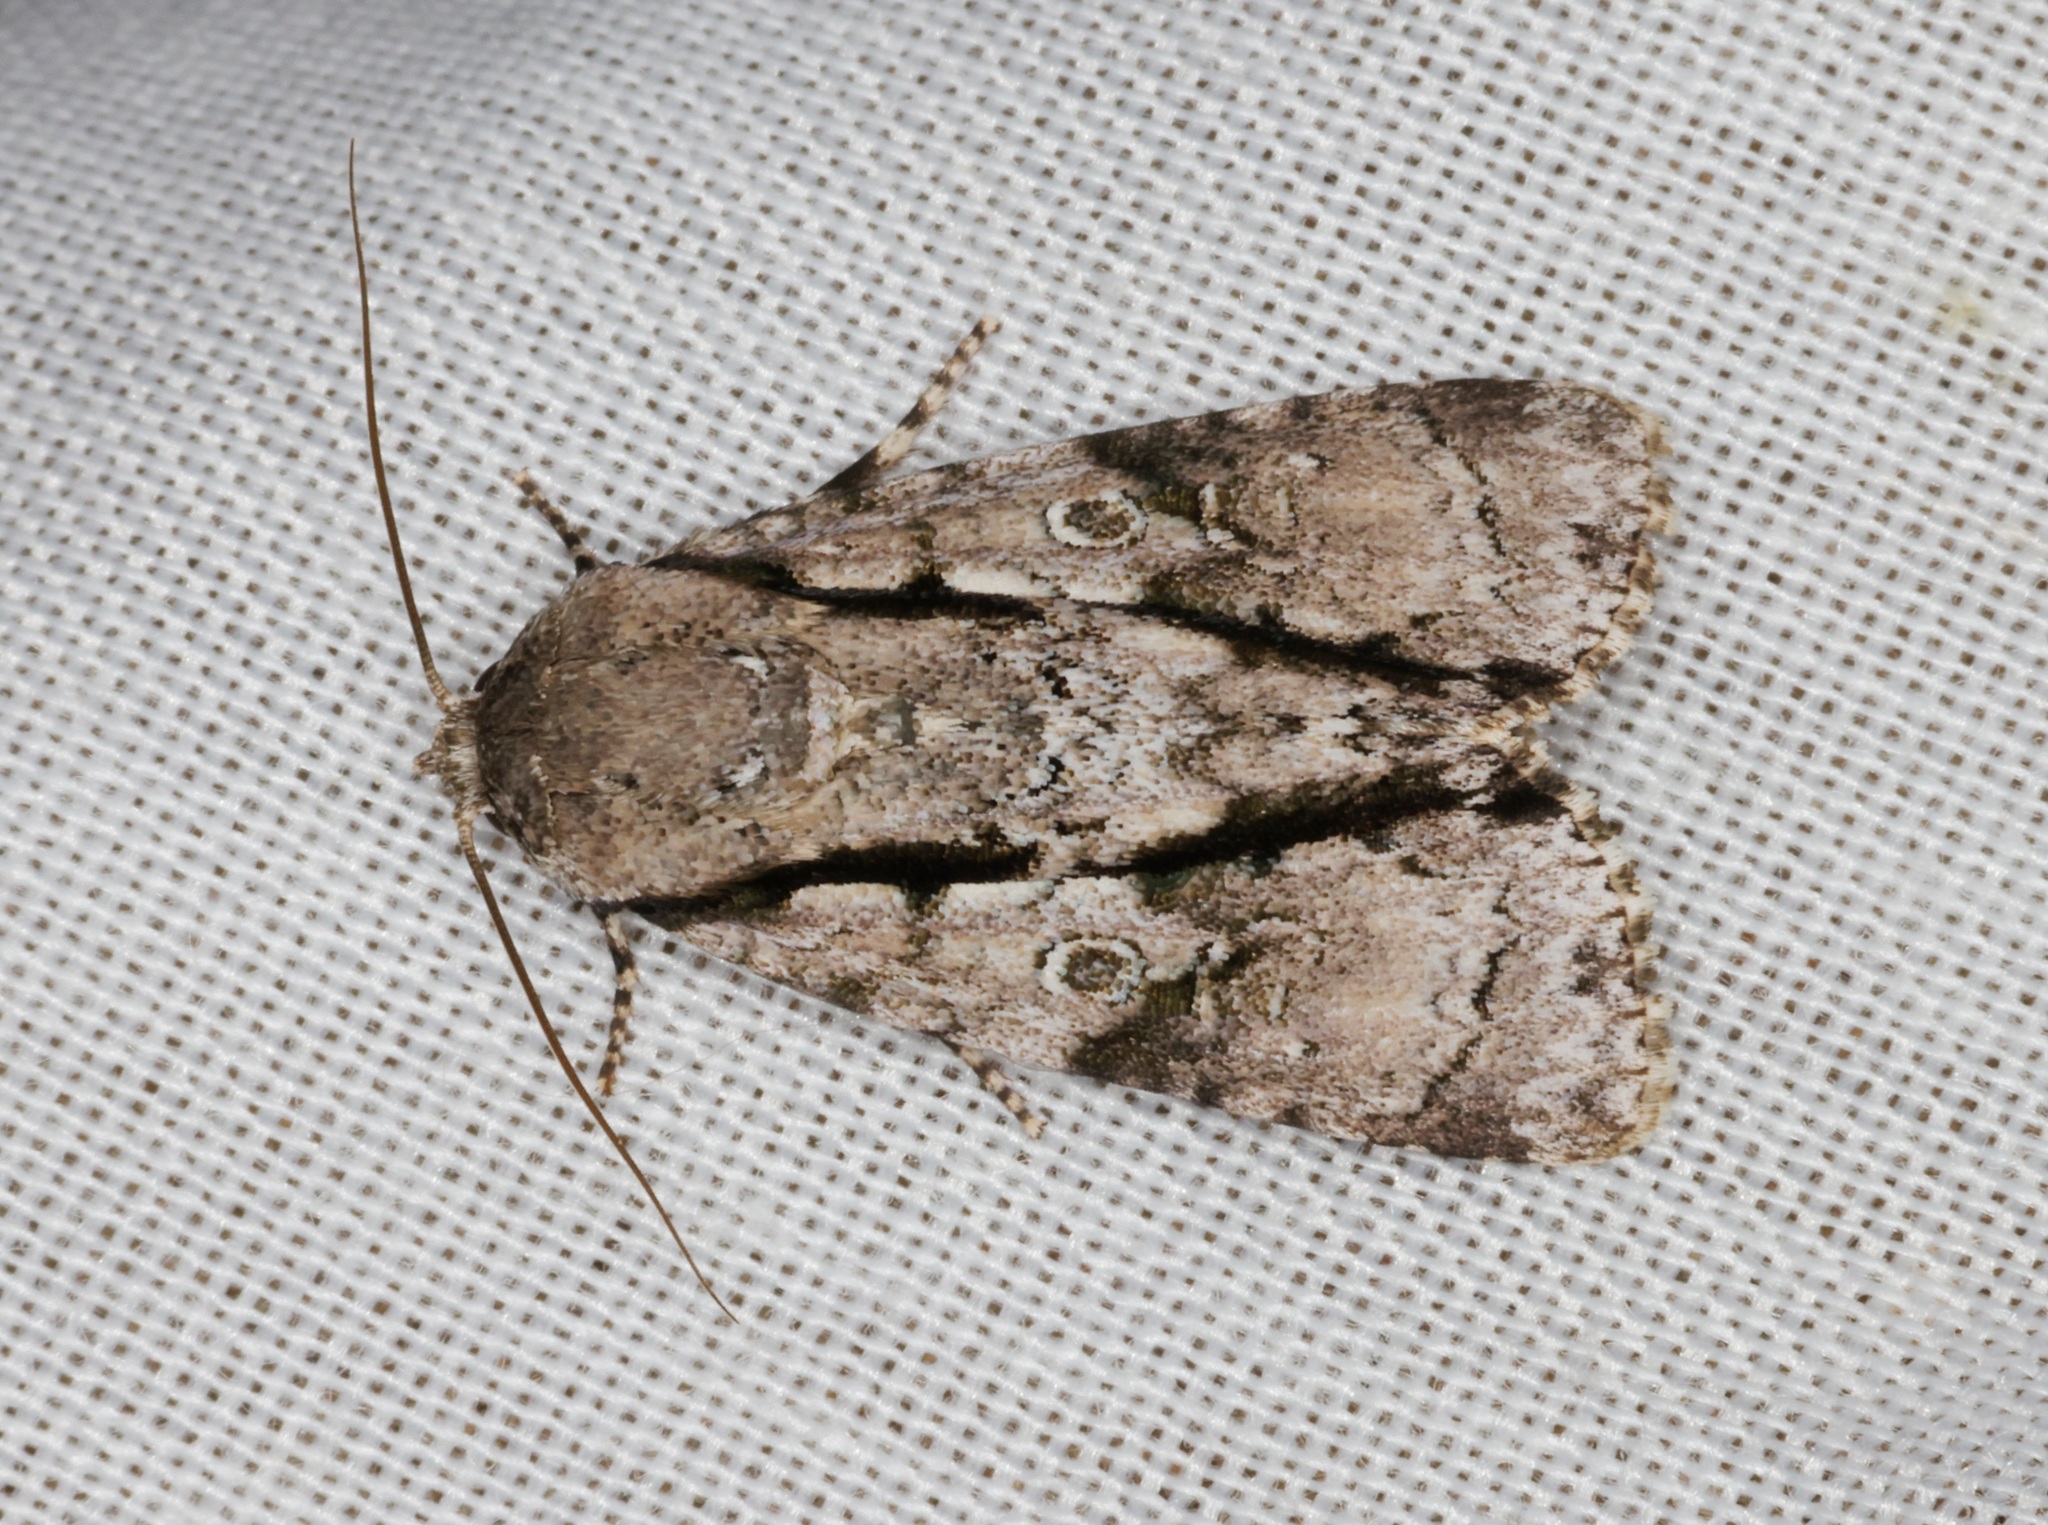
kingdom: Animalia
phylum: Arthropoda
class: Insecta
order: Lepidoptera
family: Noctuidae
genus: Fascionycta
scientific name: Fascionycta fasciata
